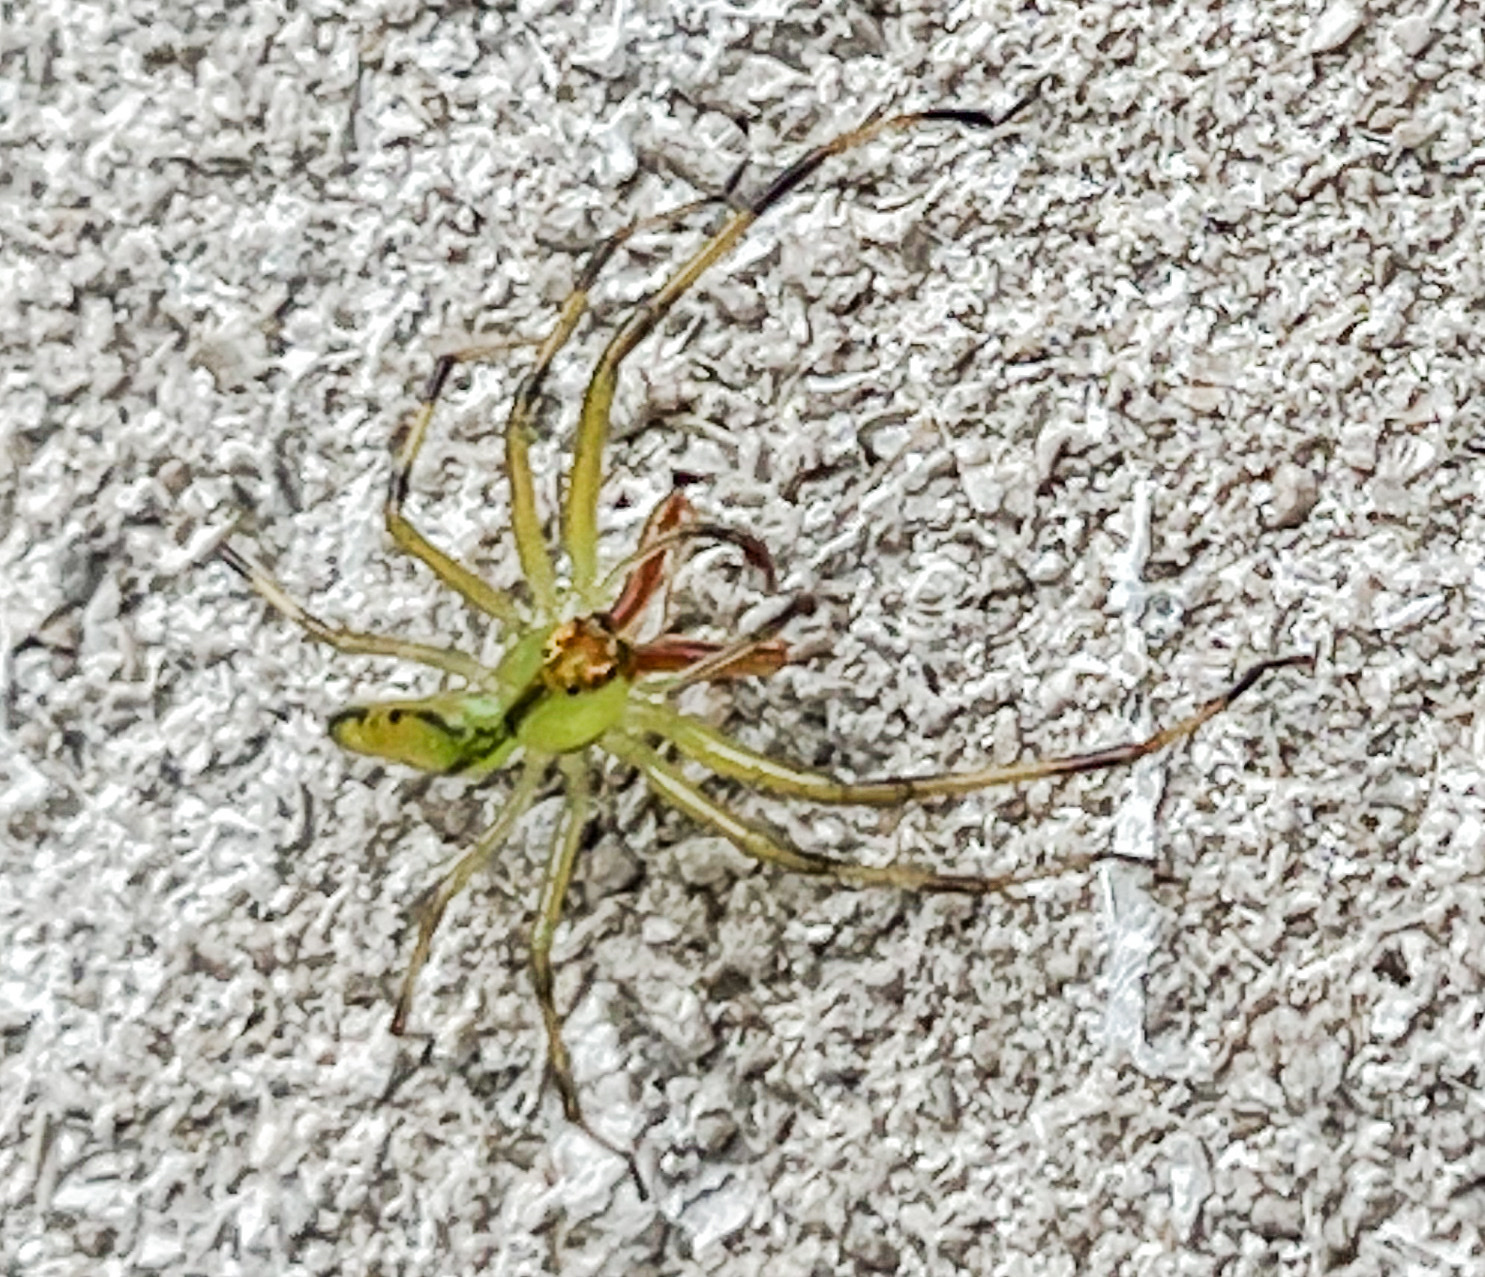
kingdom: Animalia
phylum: Arthropoda
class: Arachnida
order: Araneae
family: Salticidae
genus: Lyssomanes
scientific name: Lyssomanes viridis
